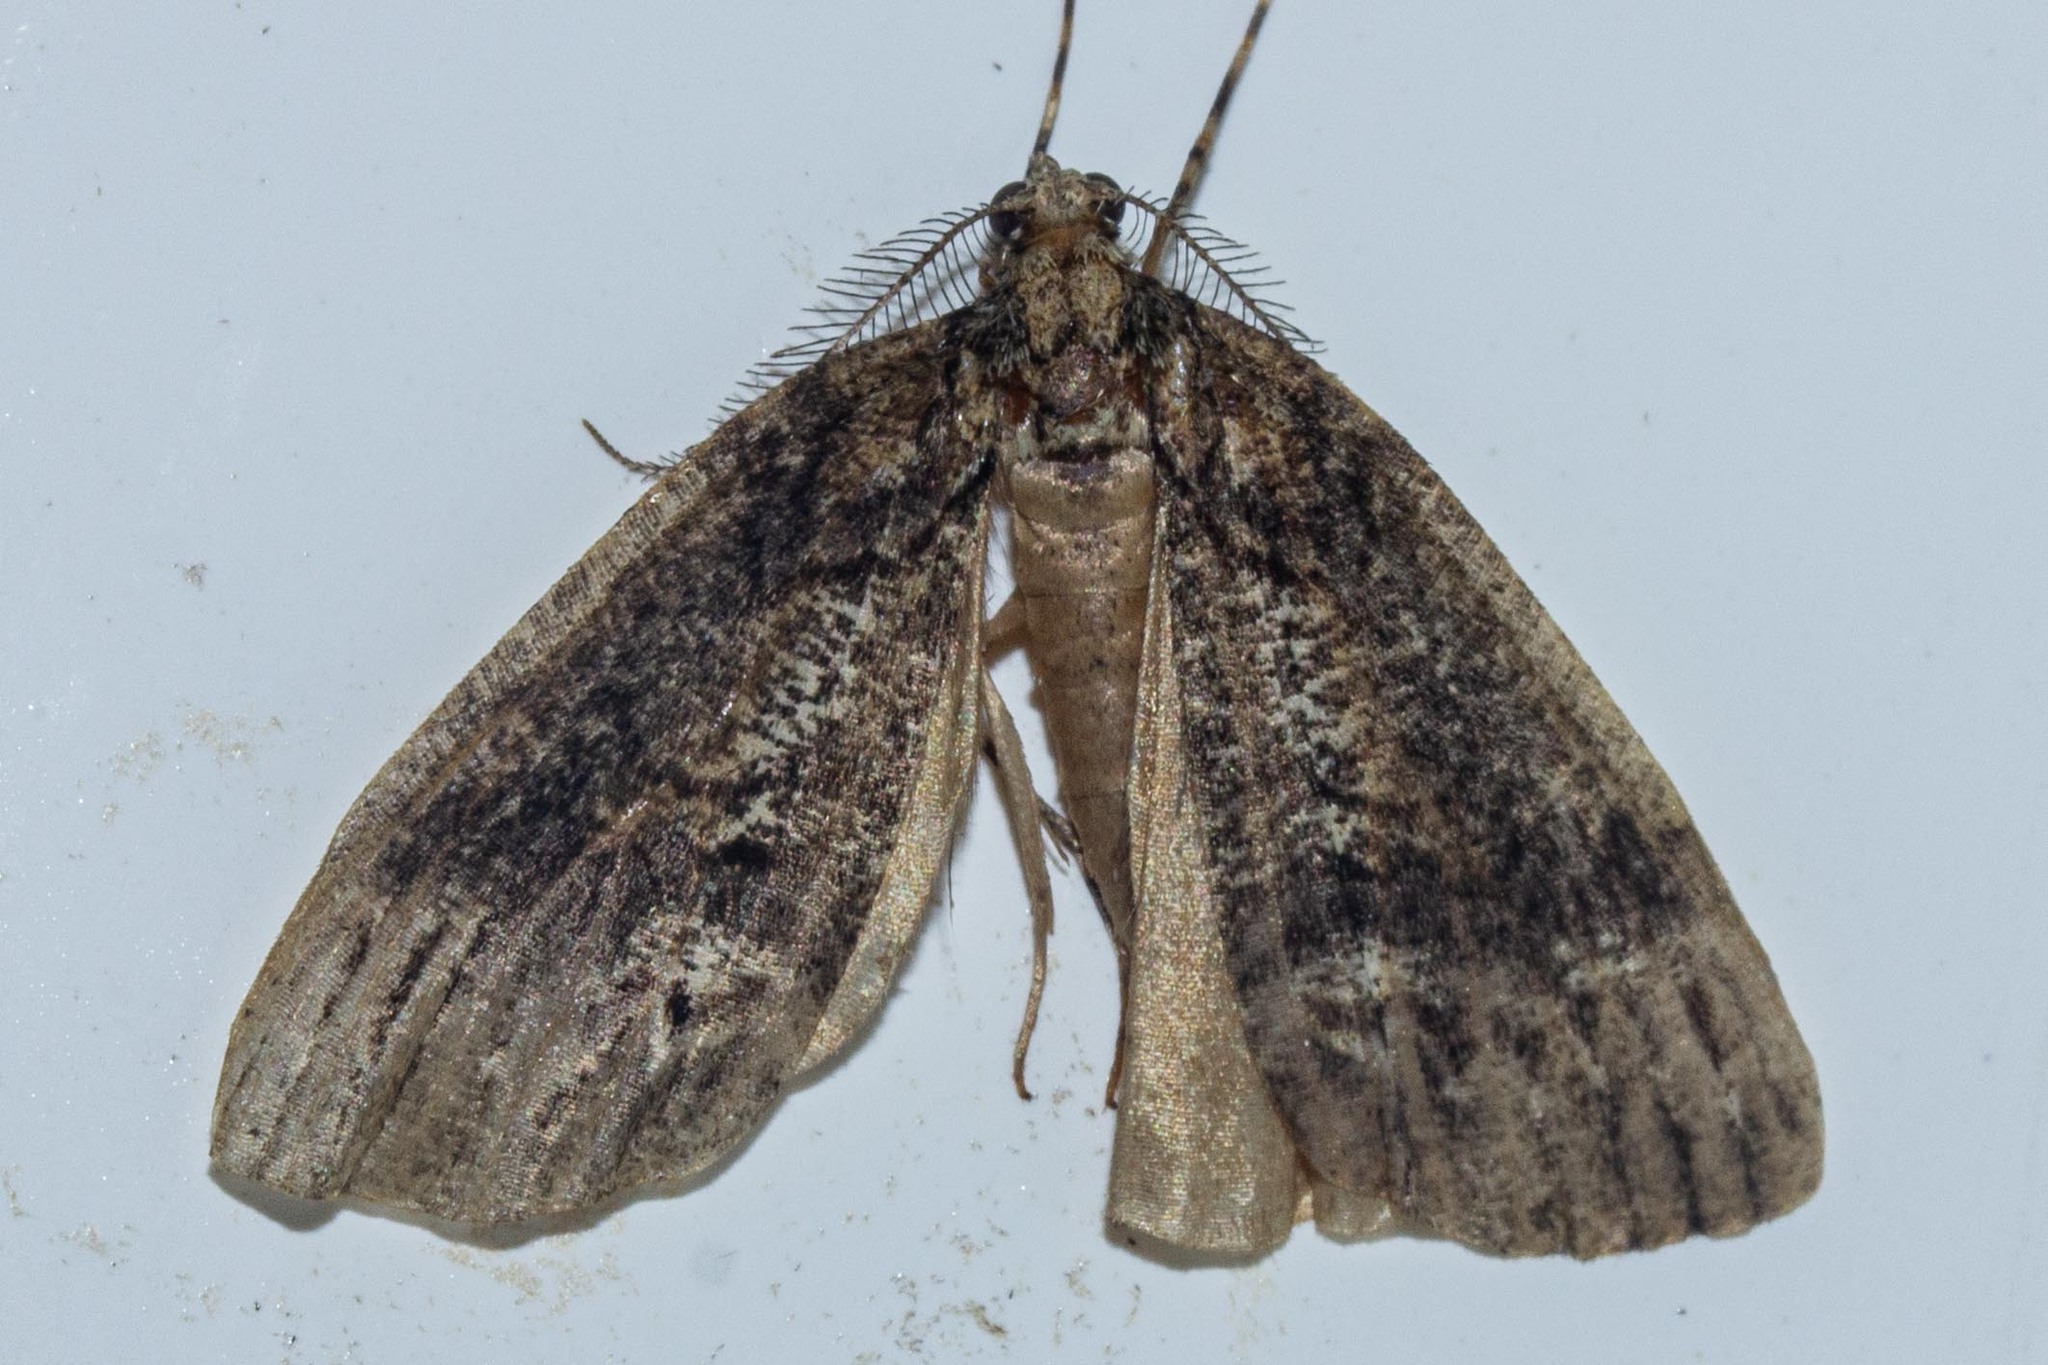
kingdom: Animalia
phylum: Arthropoda
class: Insecta
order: Lepidoptera
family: Geometridae
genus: Chalastra
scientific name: Chalastra ochrea
